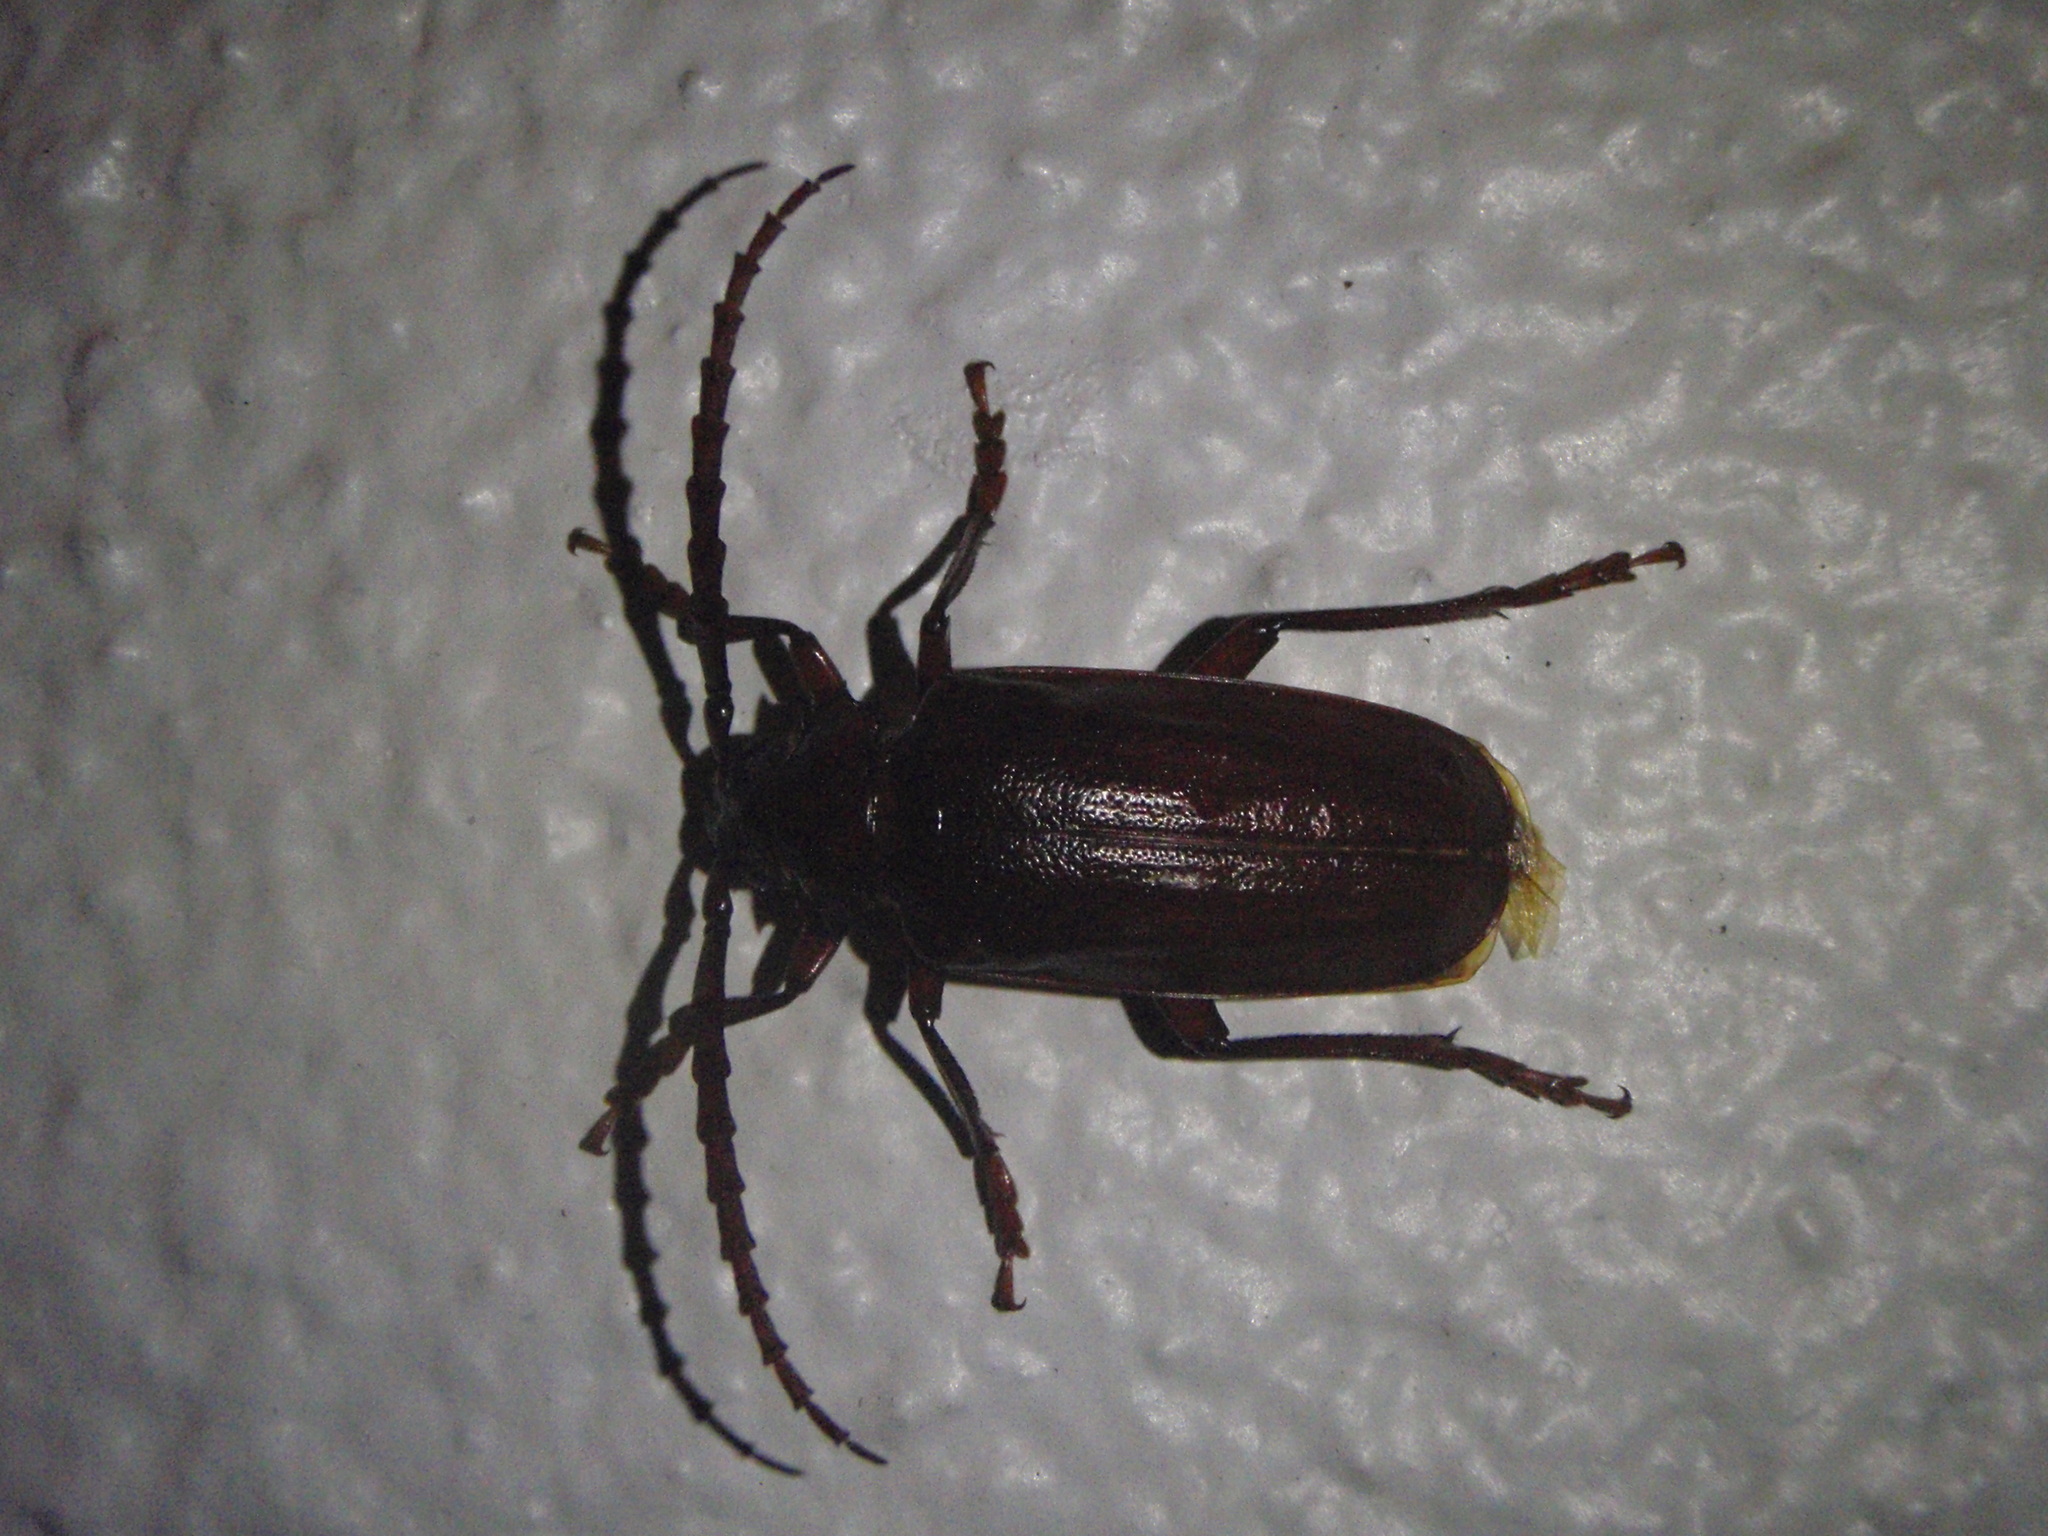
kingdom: Animalia
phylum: Arthropoda
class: Insecta
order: Coleoptera
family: Cerambycidae
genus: Prionus
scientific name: Prionus pocularis
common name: Tooth-necked longhorn beetle
